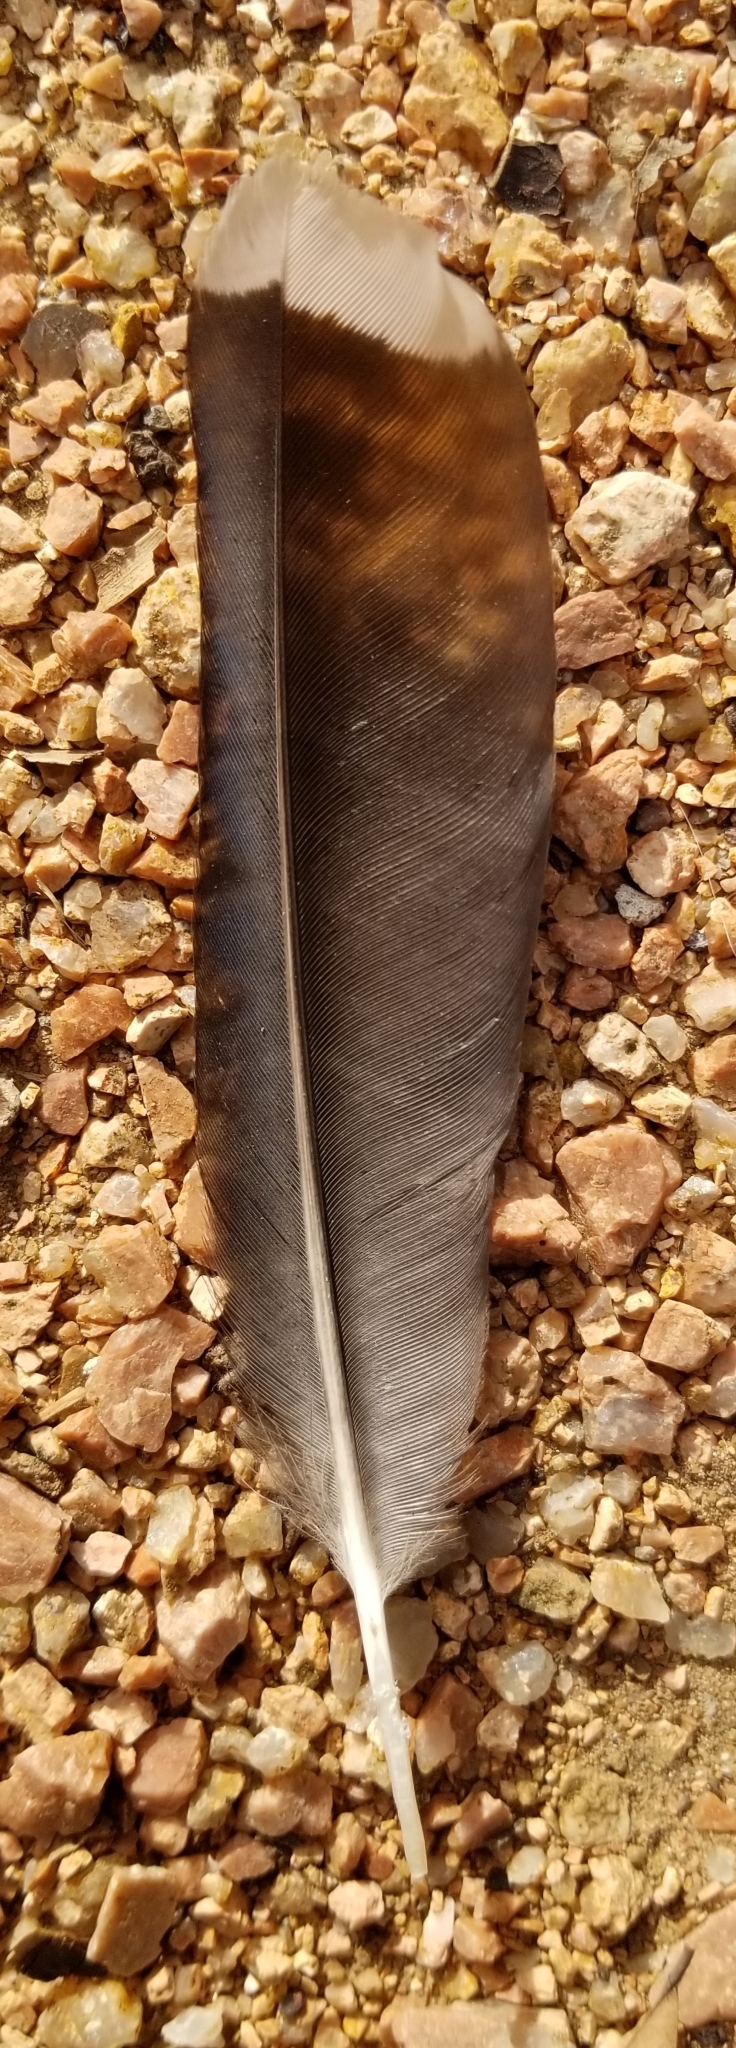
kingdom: Animalia
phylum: Chordata
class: Aves
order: Passeriformes
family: Corvidae
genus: Cyanocitta
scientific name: Cyanocitta cristata
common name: Blue jay
